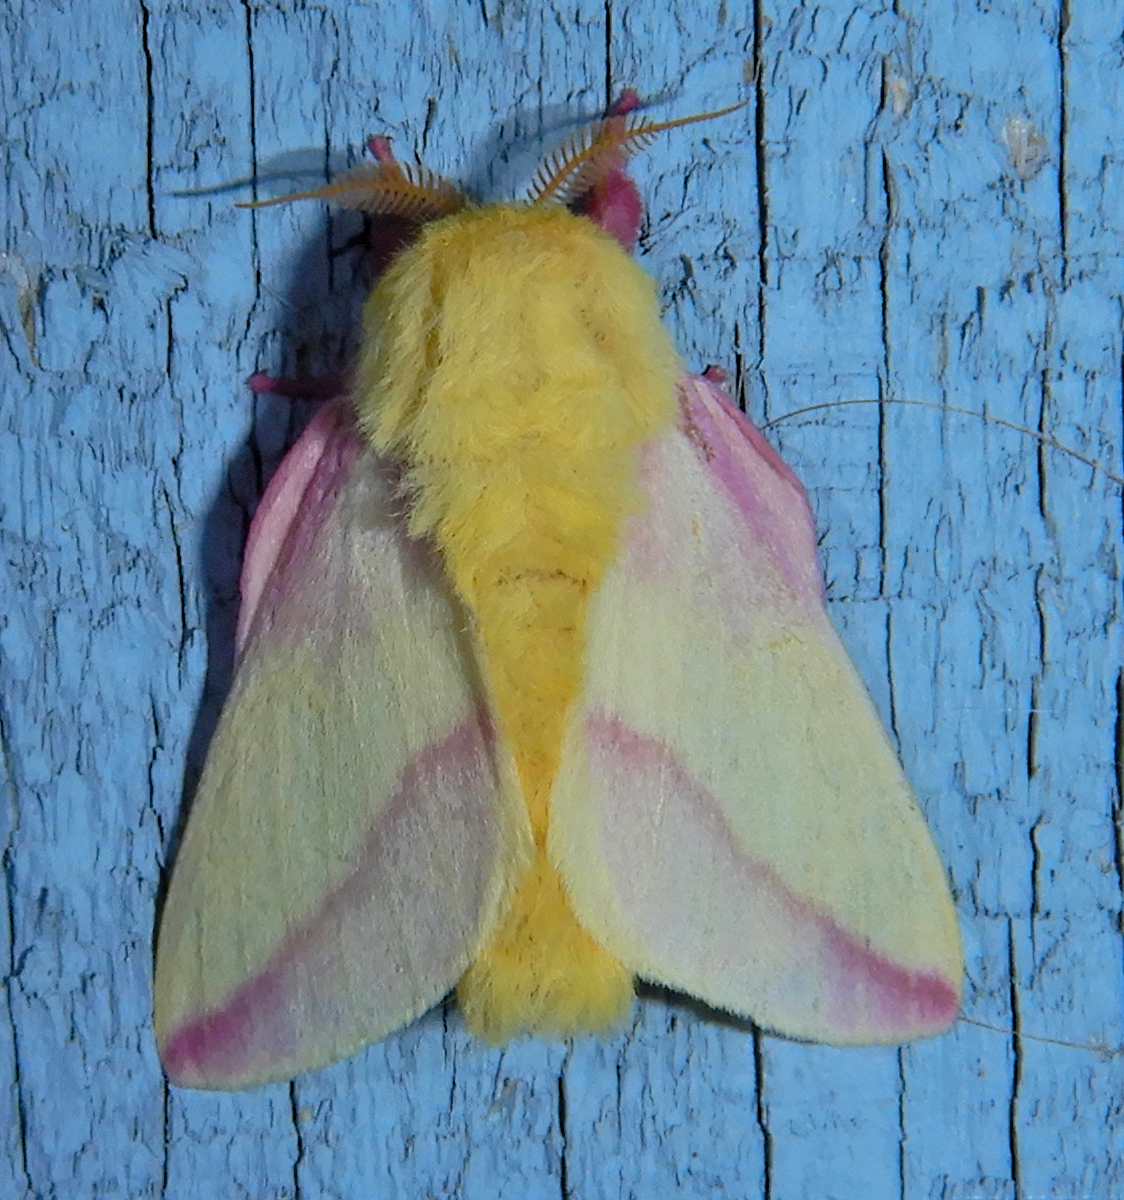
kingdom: Animalia
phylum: Arthropoda
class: Insecta
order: Lepidoptera
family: Saturniidae
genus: Dryocampa
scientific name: Dryocampa rubicunda
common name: Rosy maple moth
